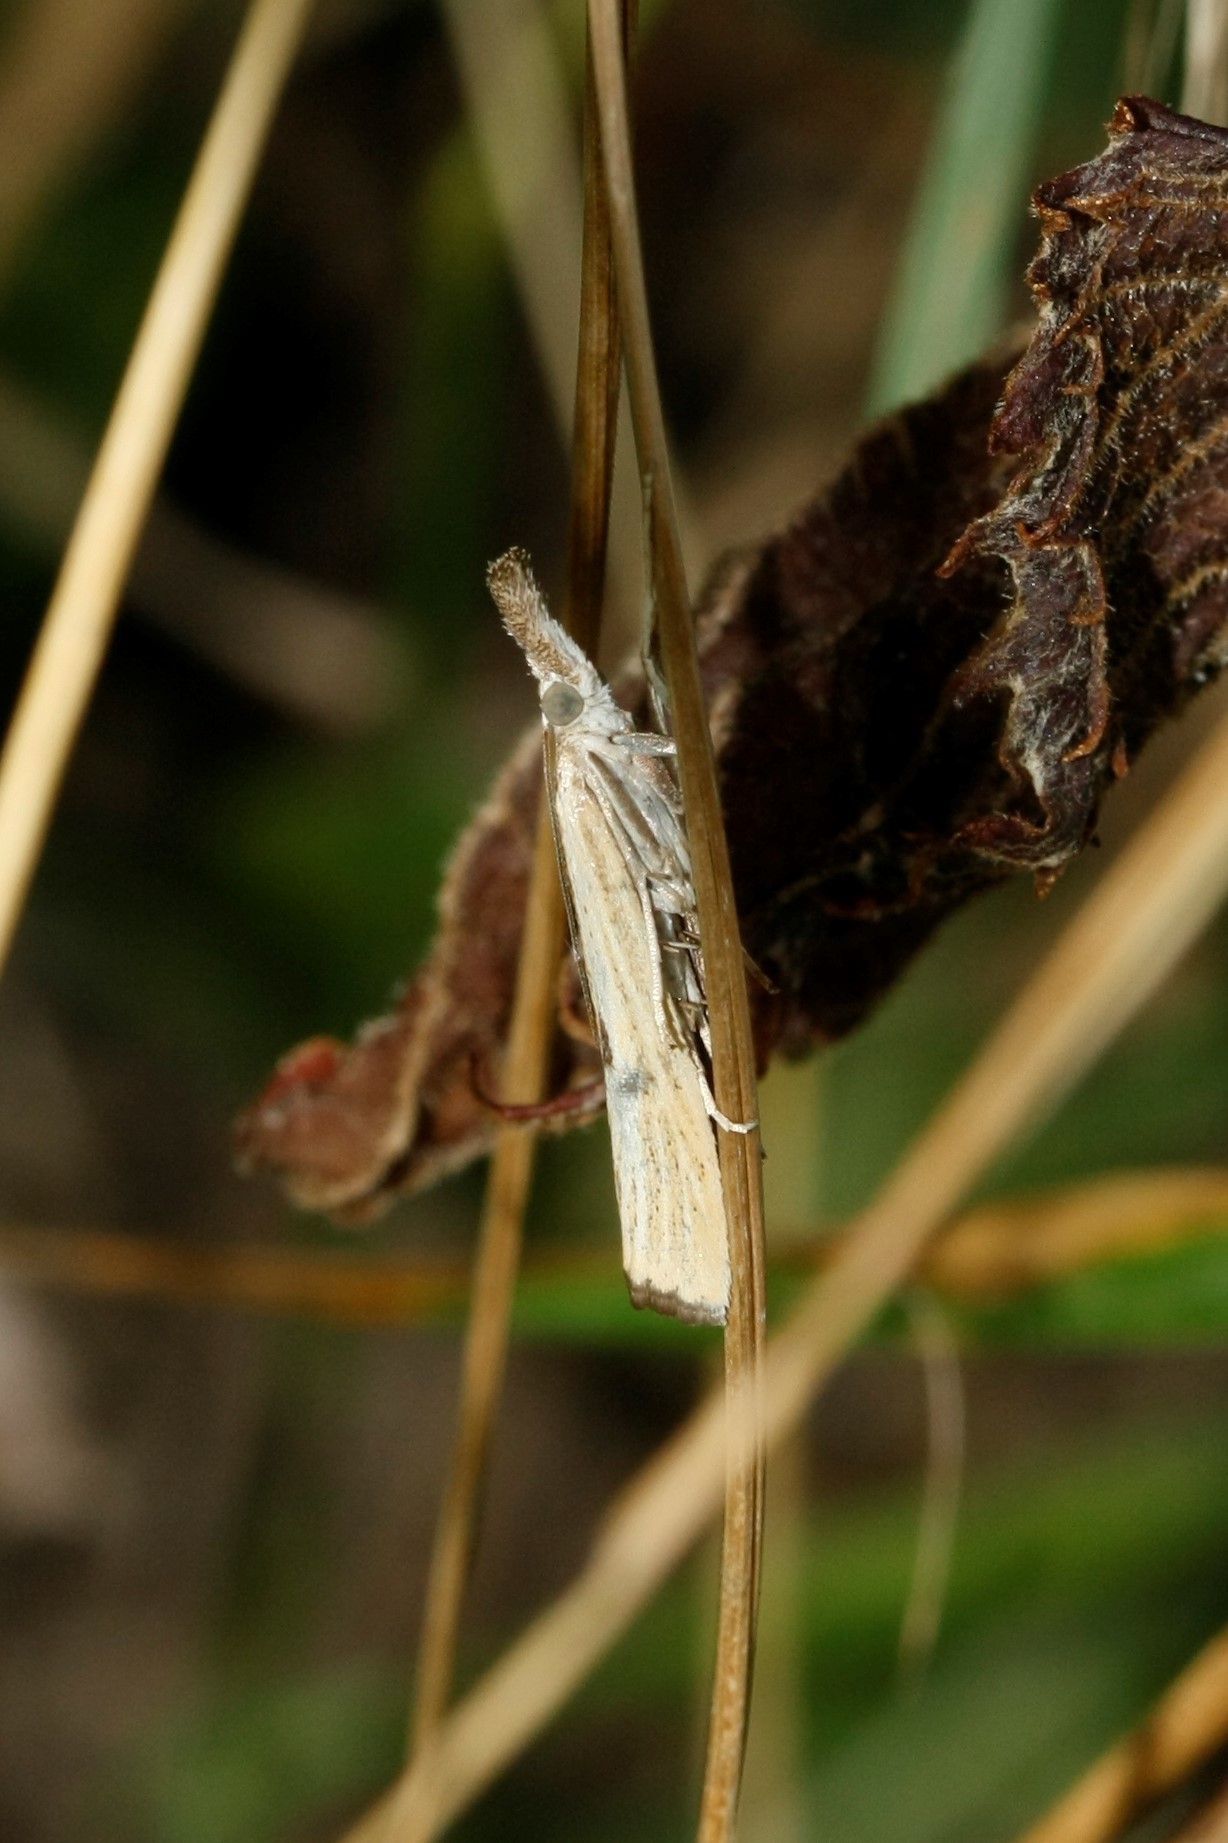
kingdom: Animalia
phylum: Arthropoda
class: Insecta
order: Lepidoptera
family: Crambidae
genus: Agriphila
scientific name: Agriphila straminella
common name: Straw grass-veneer
